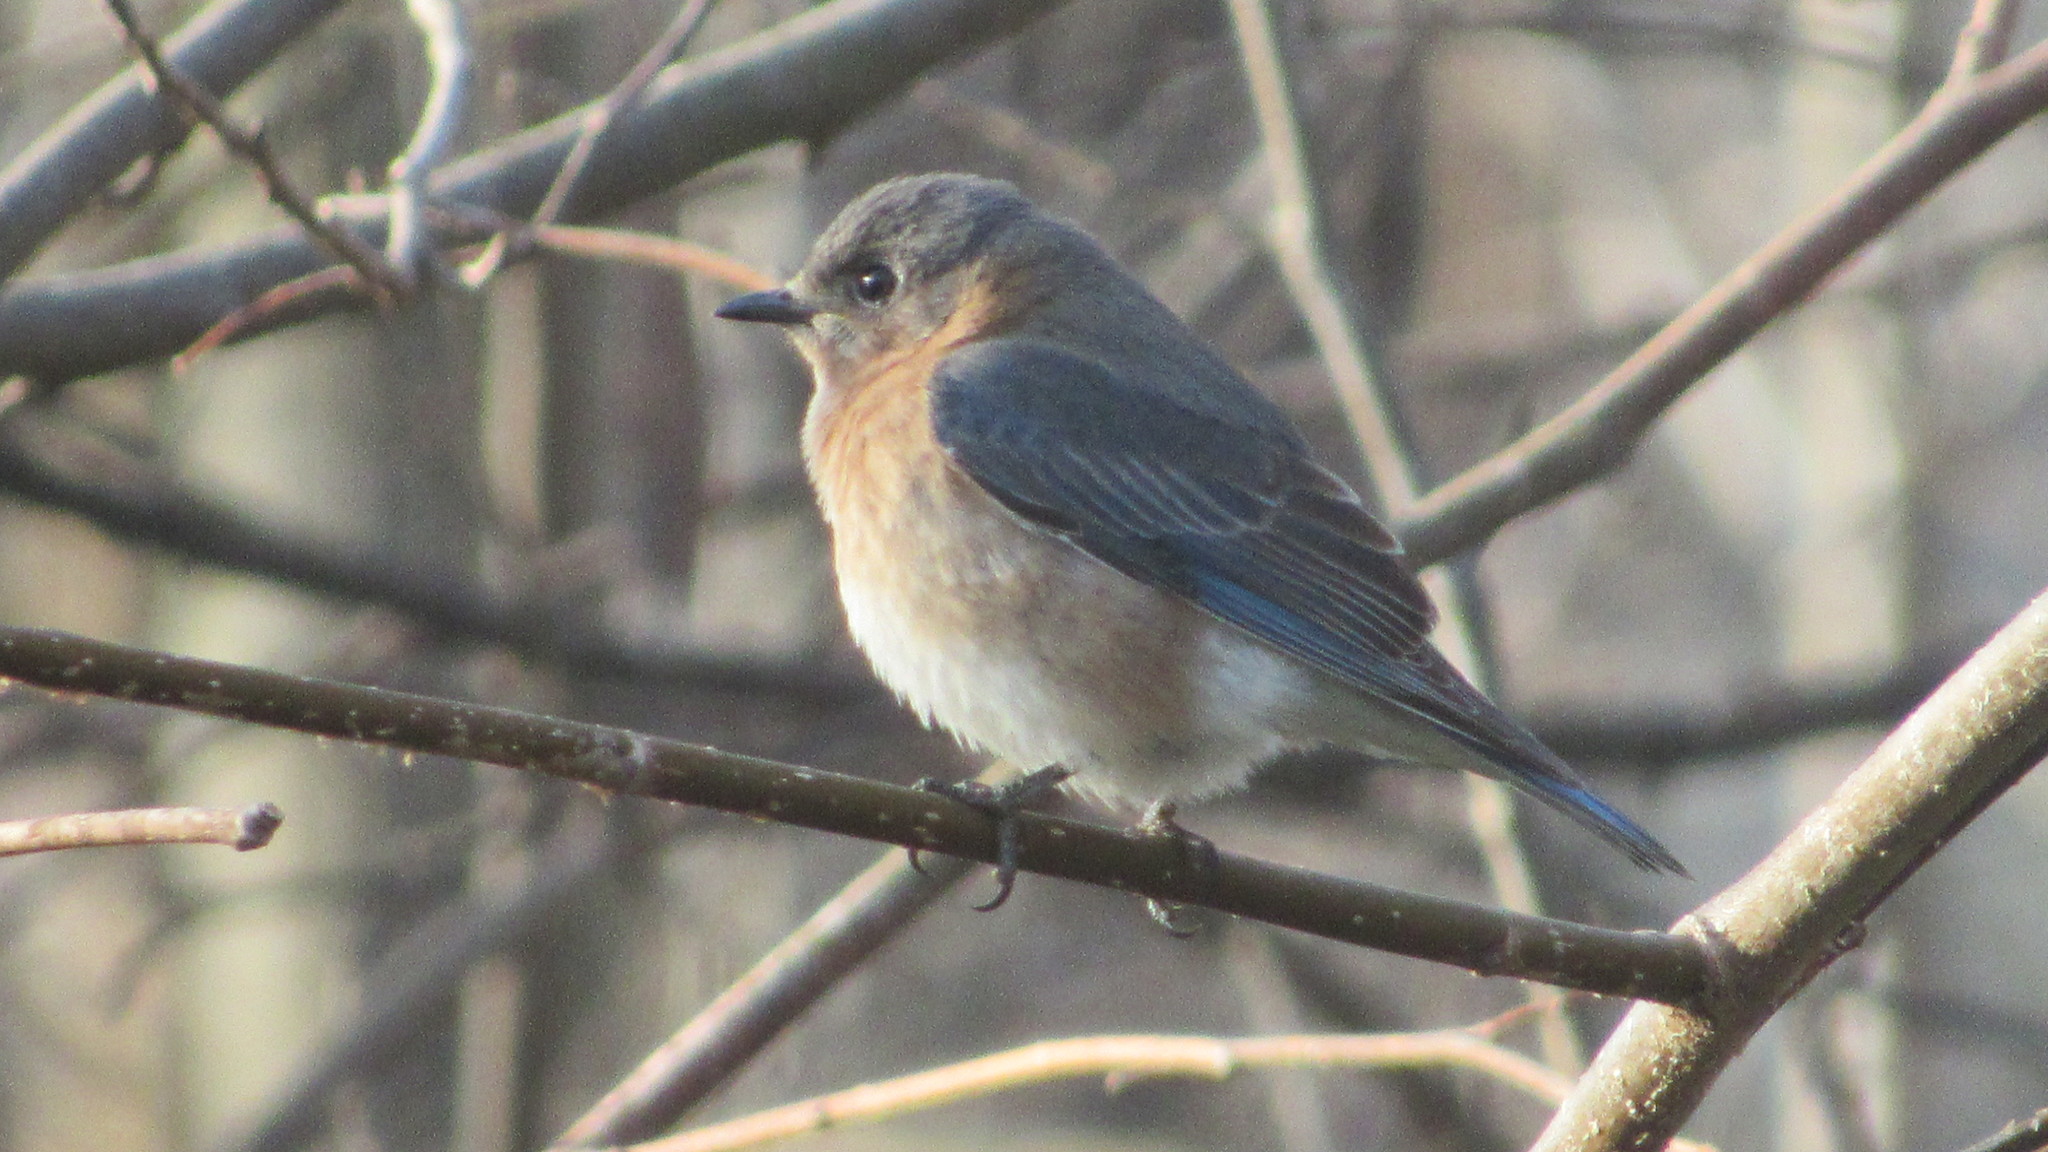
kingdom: Animalia
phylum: Chordata
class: Aves
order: Passeriformes
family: Turdidae
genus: Sialia
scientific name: Sialia sialis
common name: Eastern bluebird
